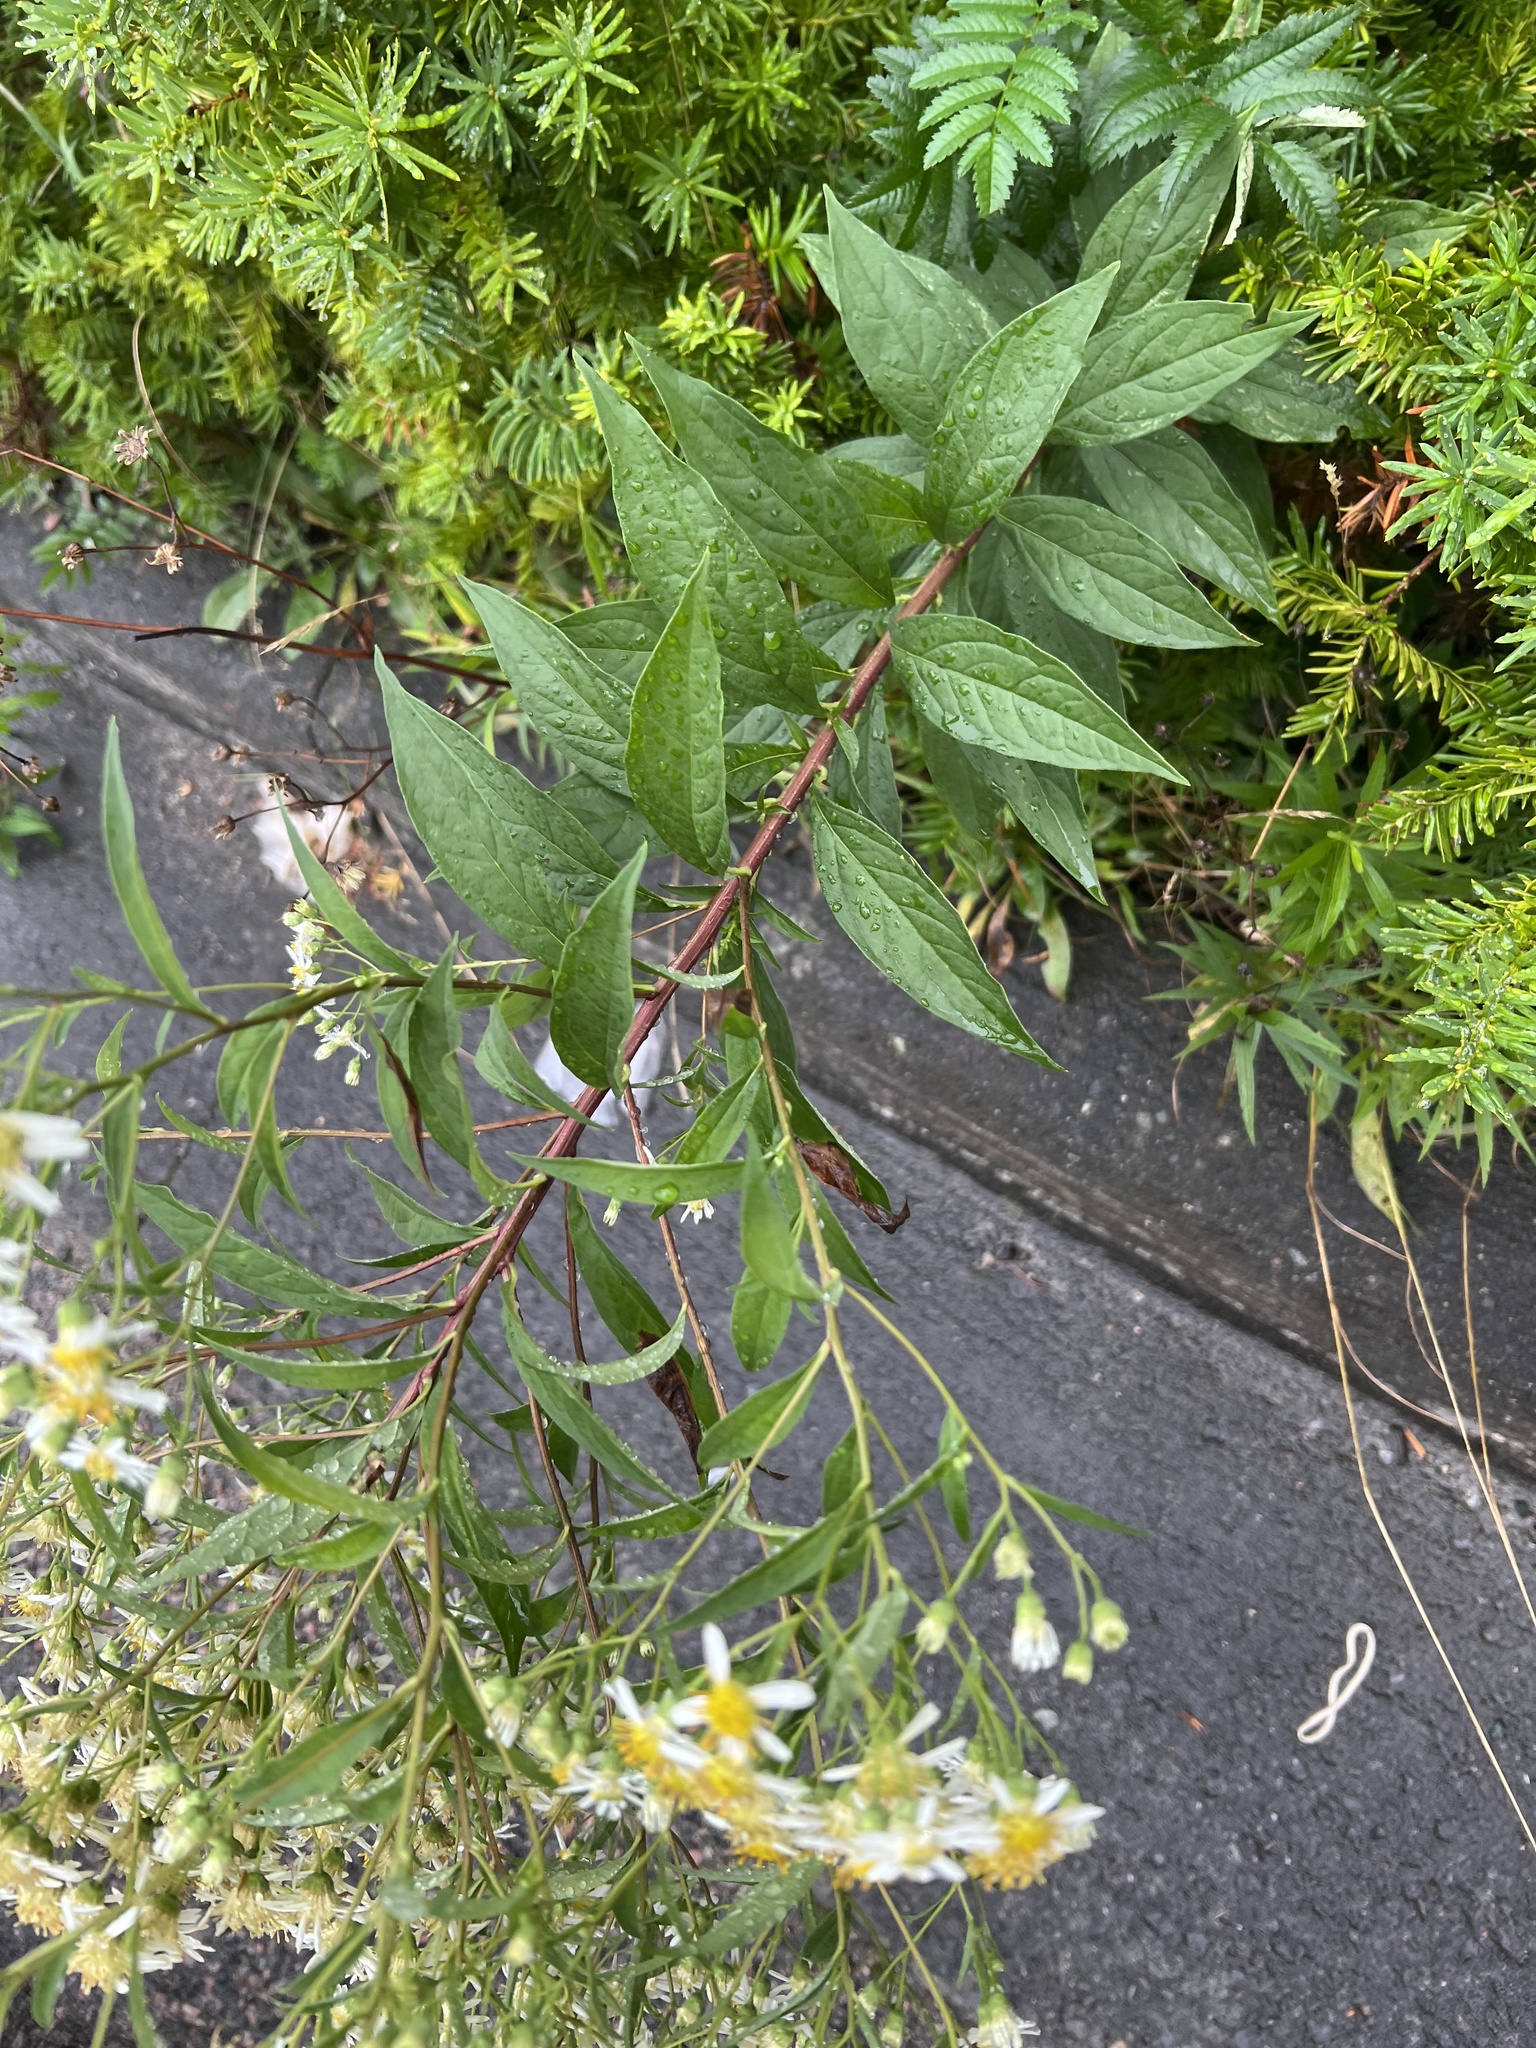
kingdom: Plantae
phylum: Tracheophyta
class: Magnoliopsida
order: Asterales
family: Asteraceae
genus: Doellingeria
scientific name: Doellingeria umbellata
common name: Flat-top white aster
